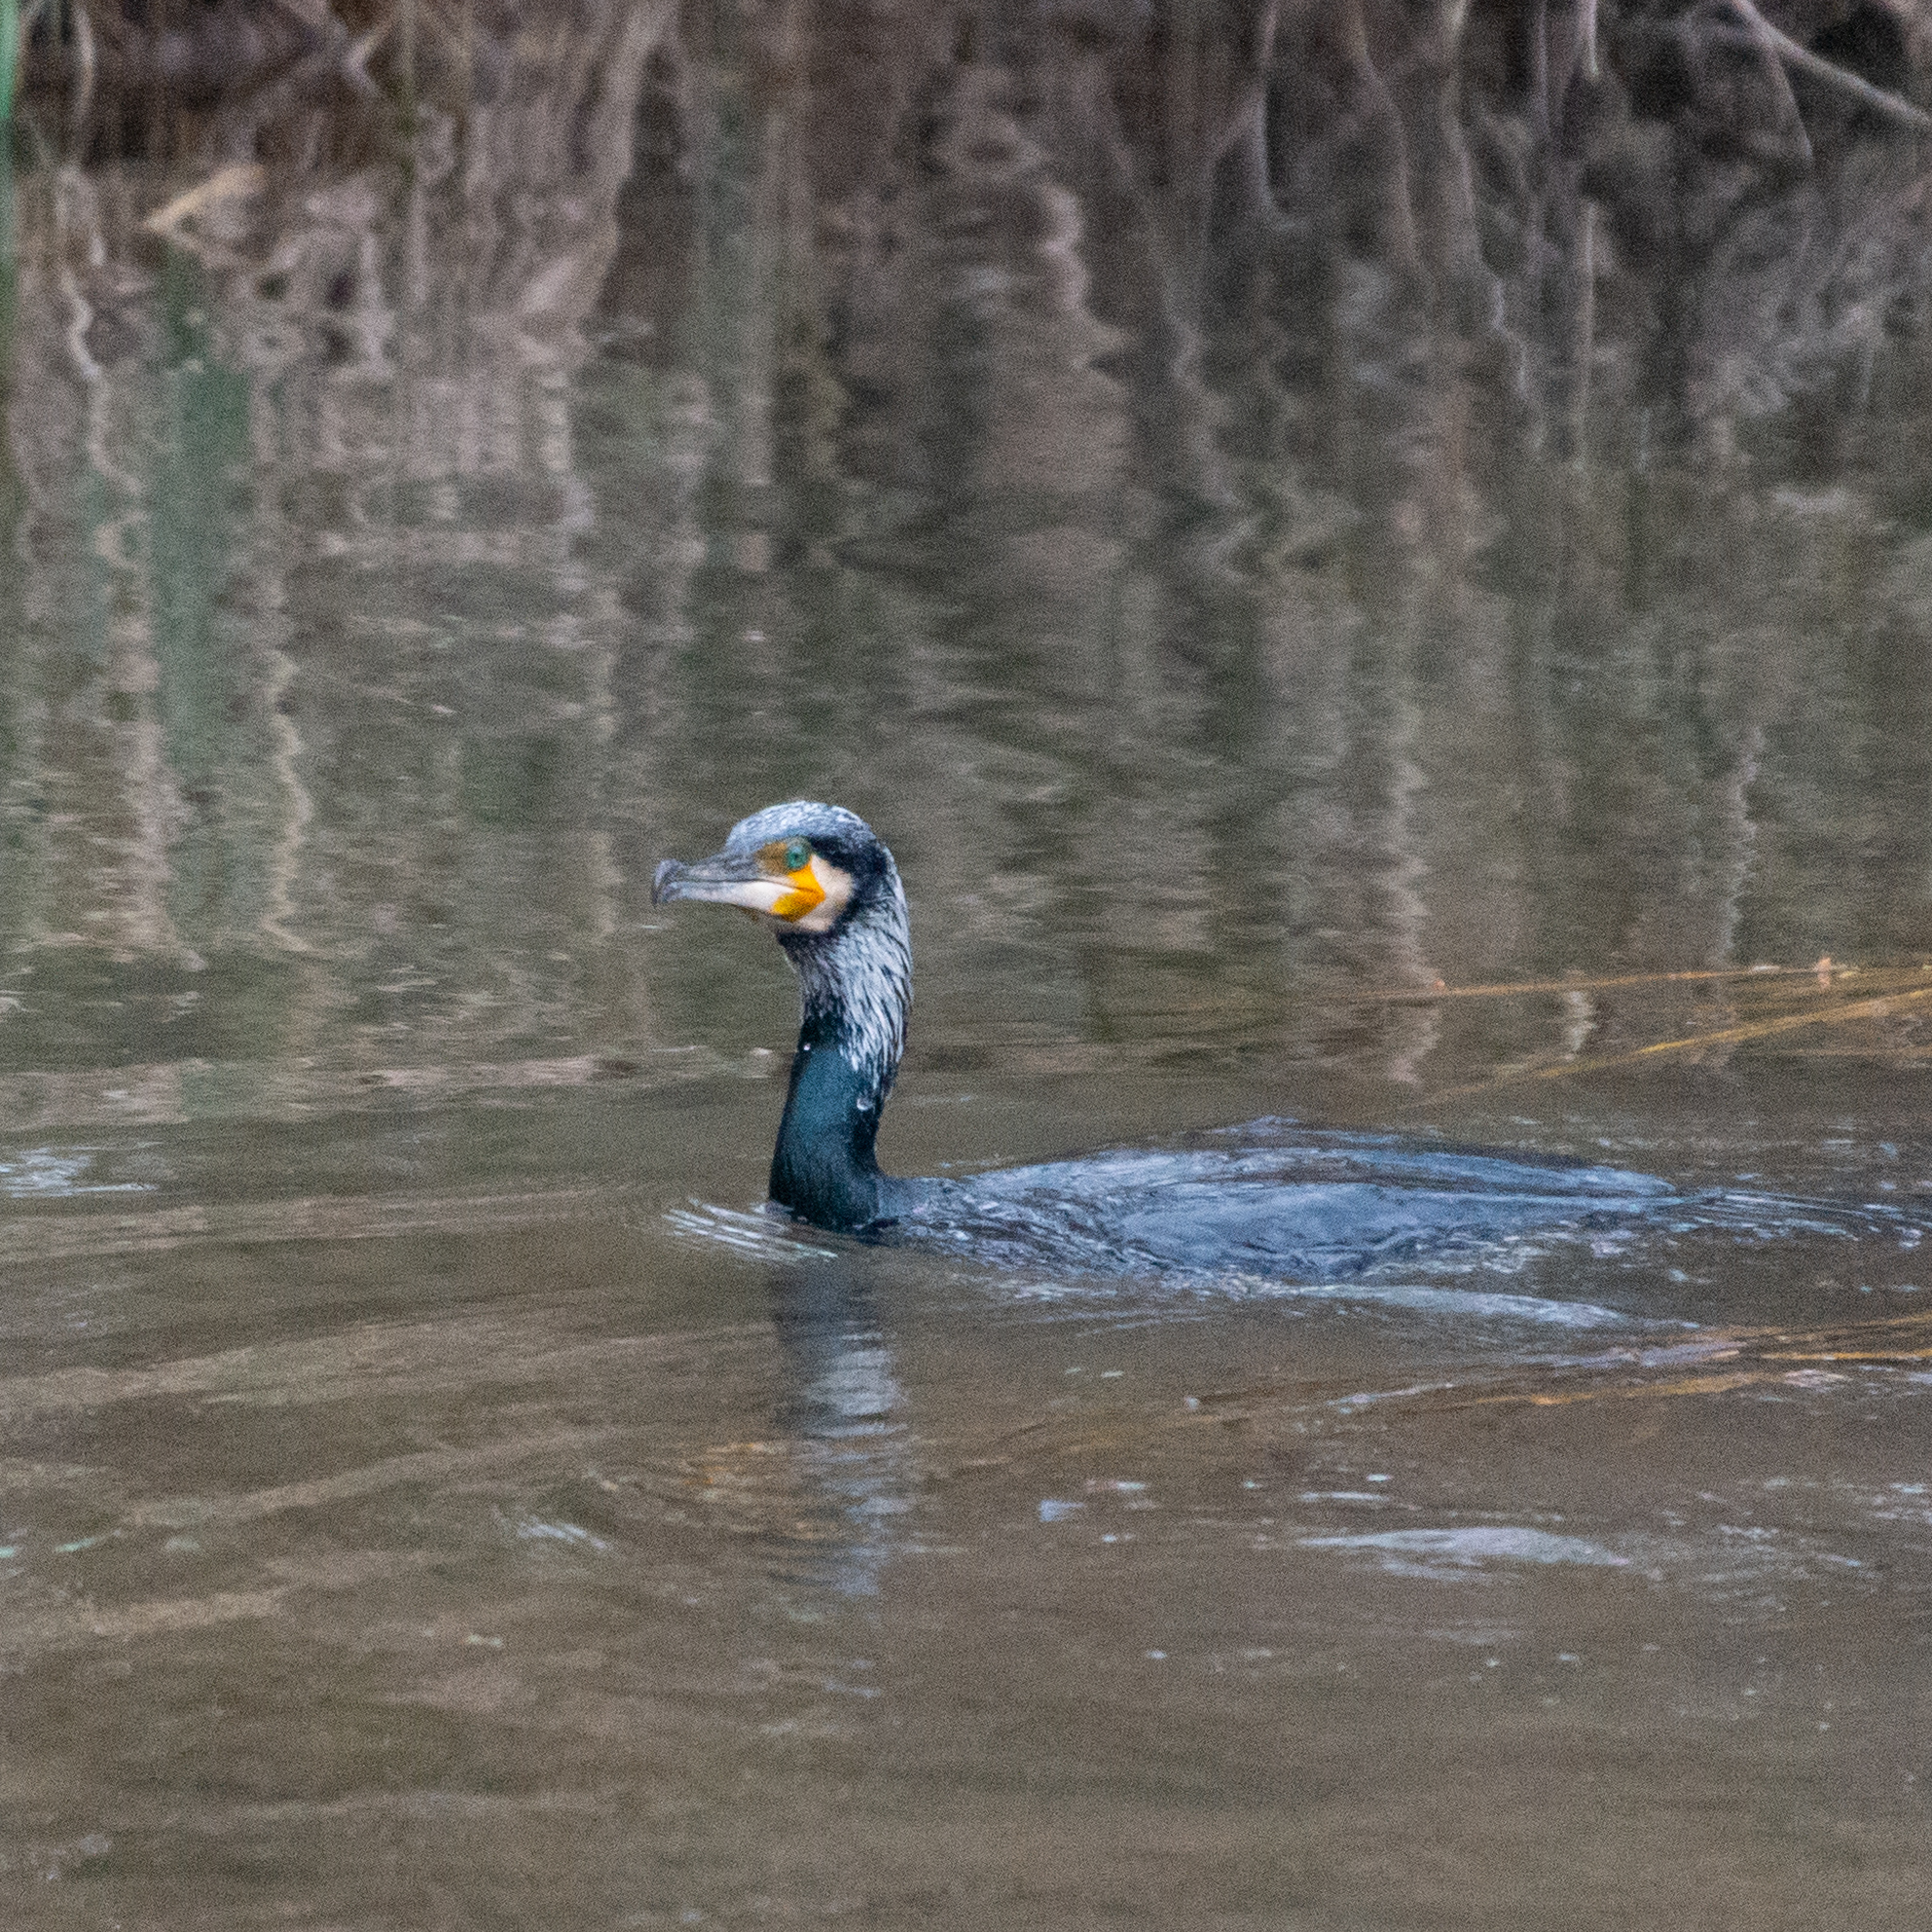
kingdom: Animalia
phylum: Chordata
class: Aves
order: Suliformes
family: Phalacrocoracidae
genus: Phalacrocorax
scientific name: Phalacrocorax carbo
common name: Great cormorant
